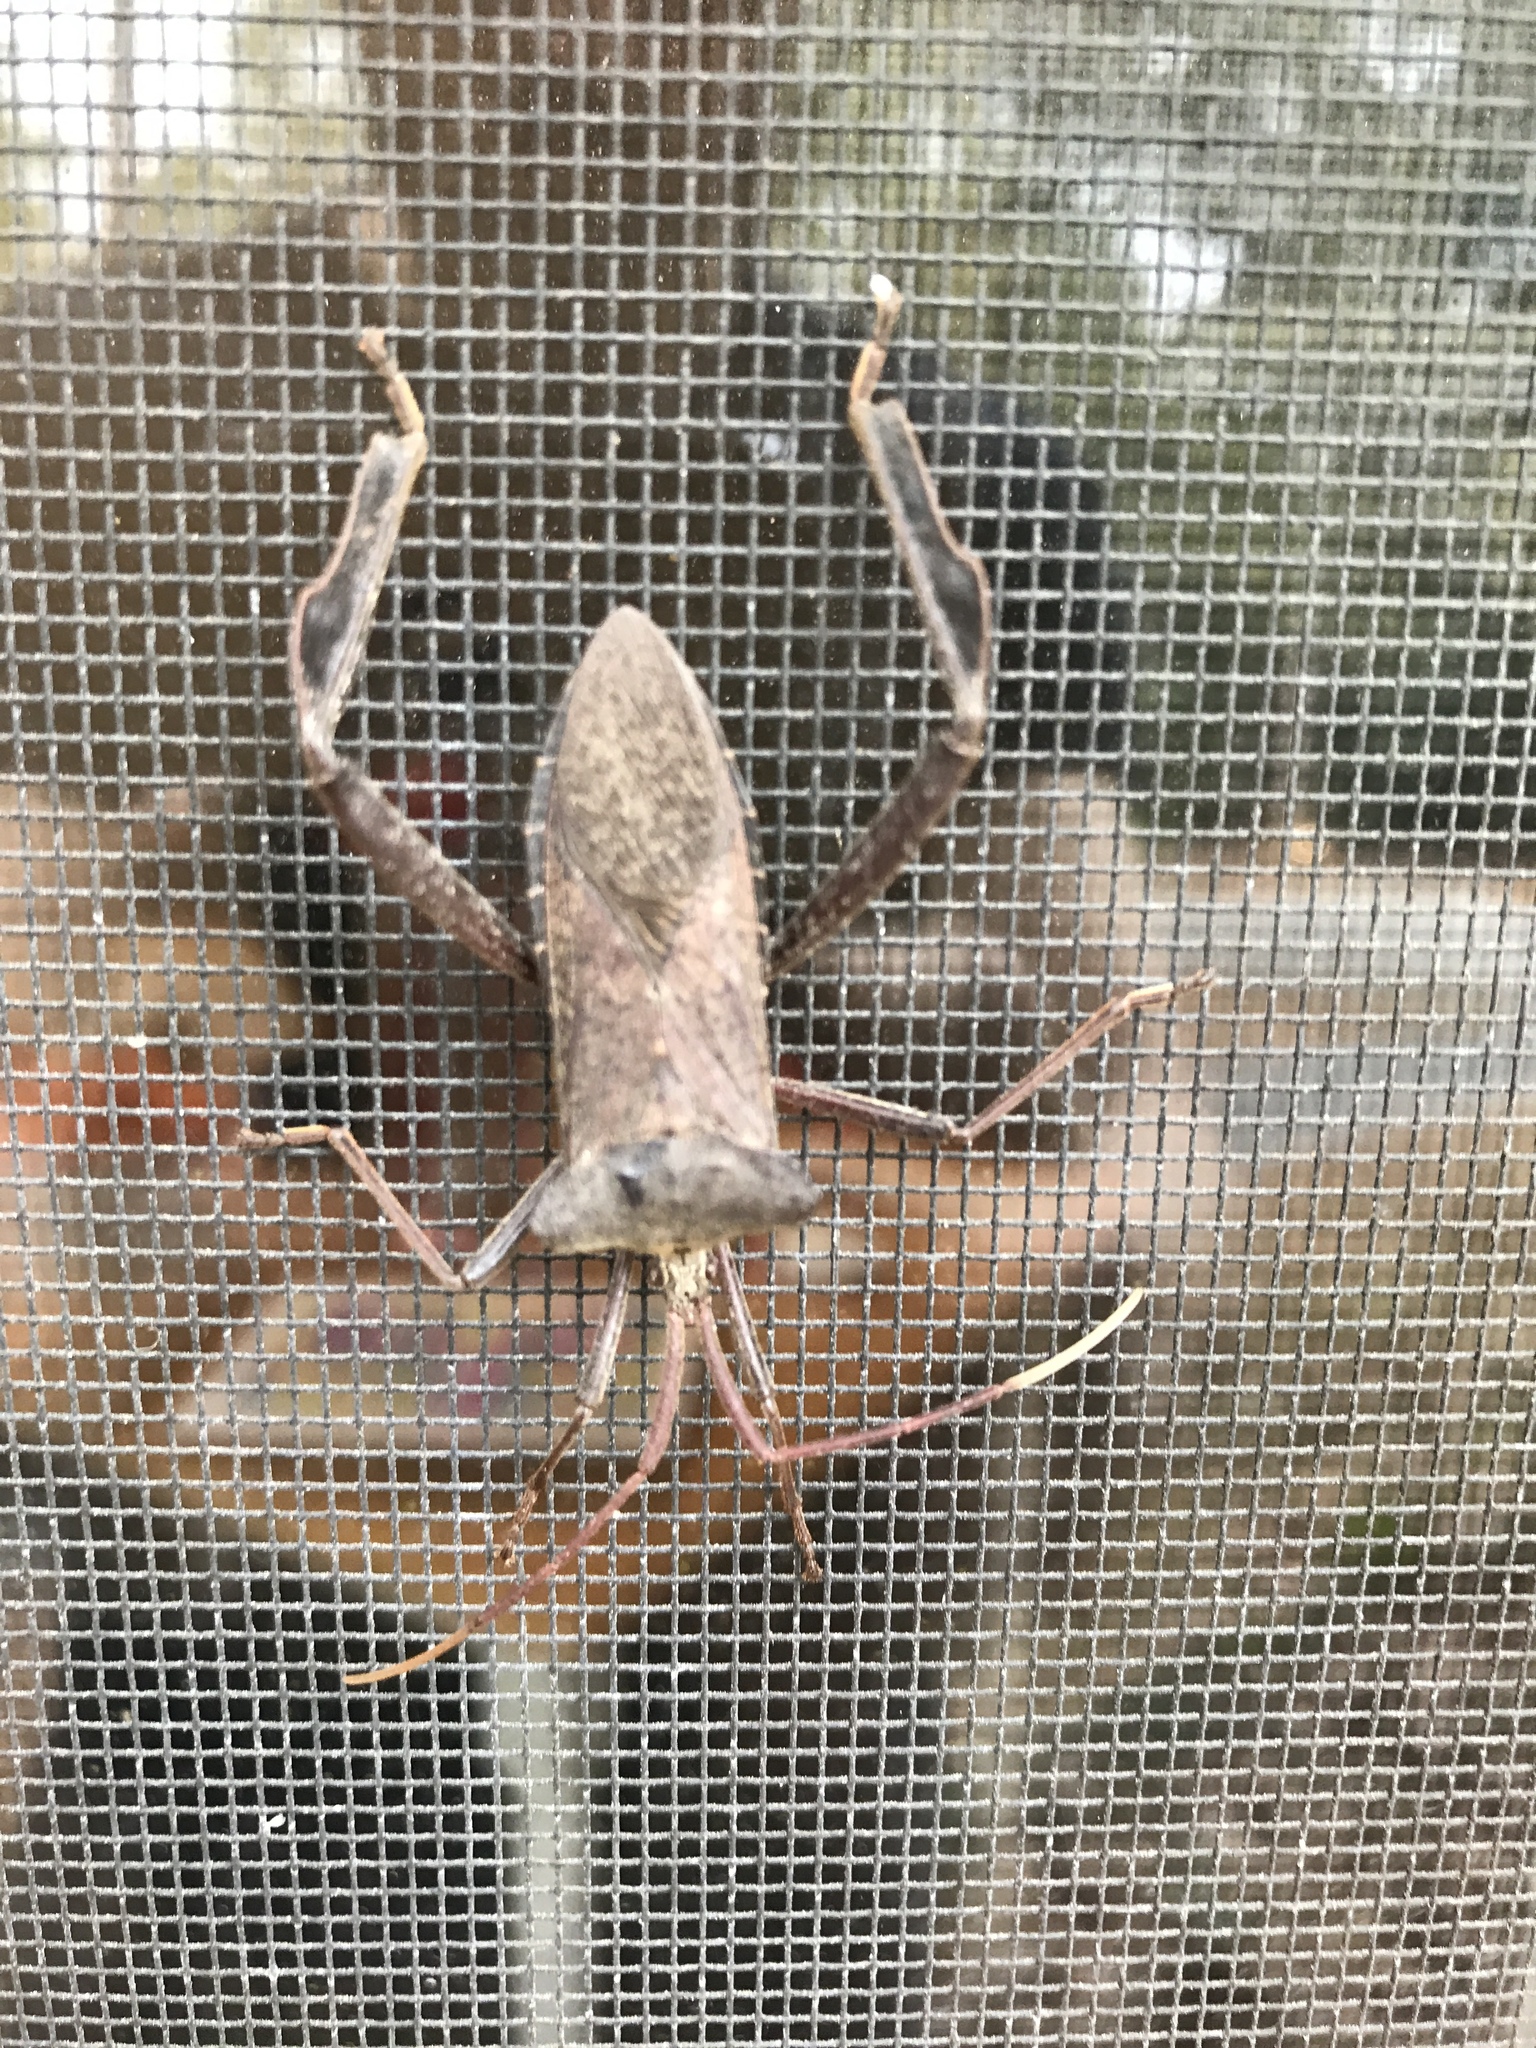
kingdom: Animalia
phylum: Arthropoda
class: Insecta
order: Hemiptera
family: Coreidae
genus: Acanthocephala
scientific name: Acanthocephala declivis
